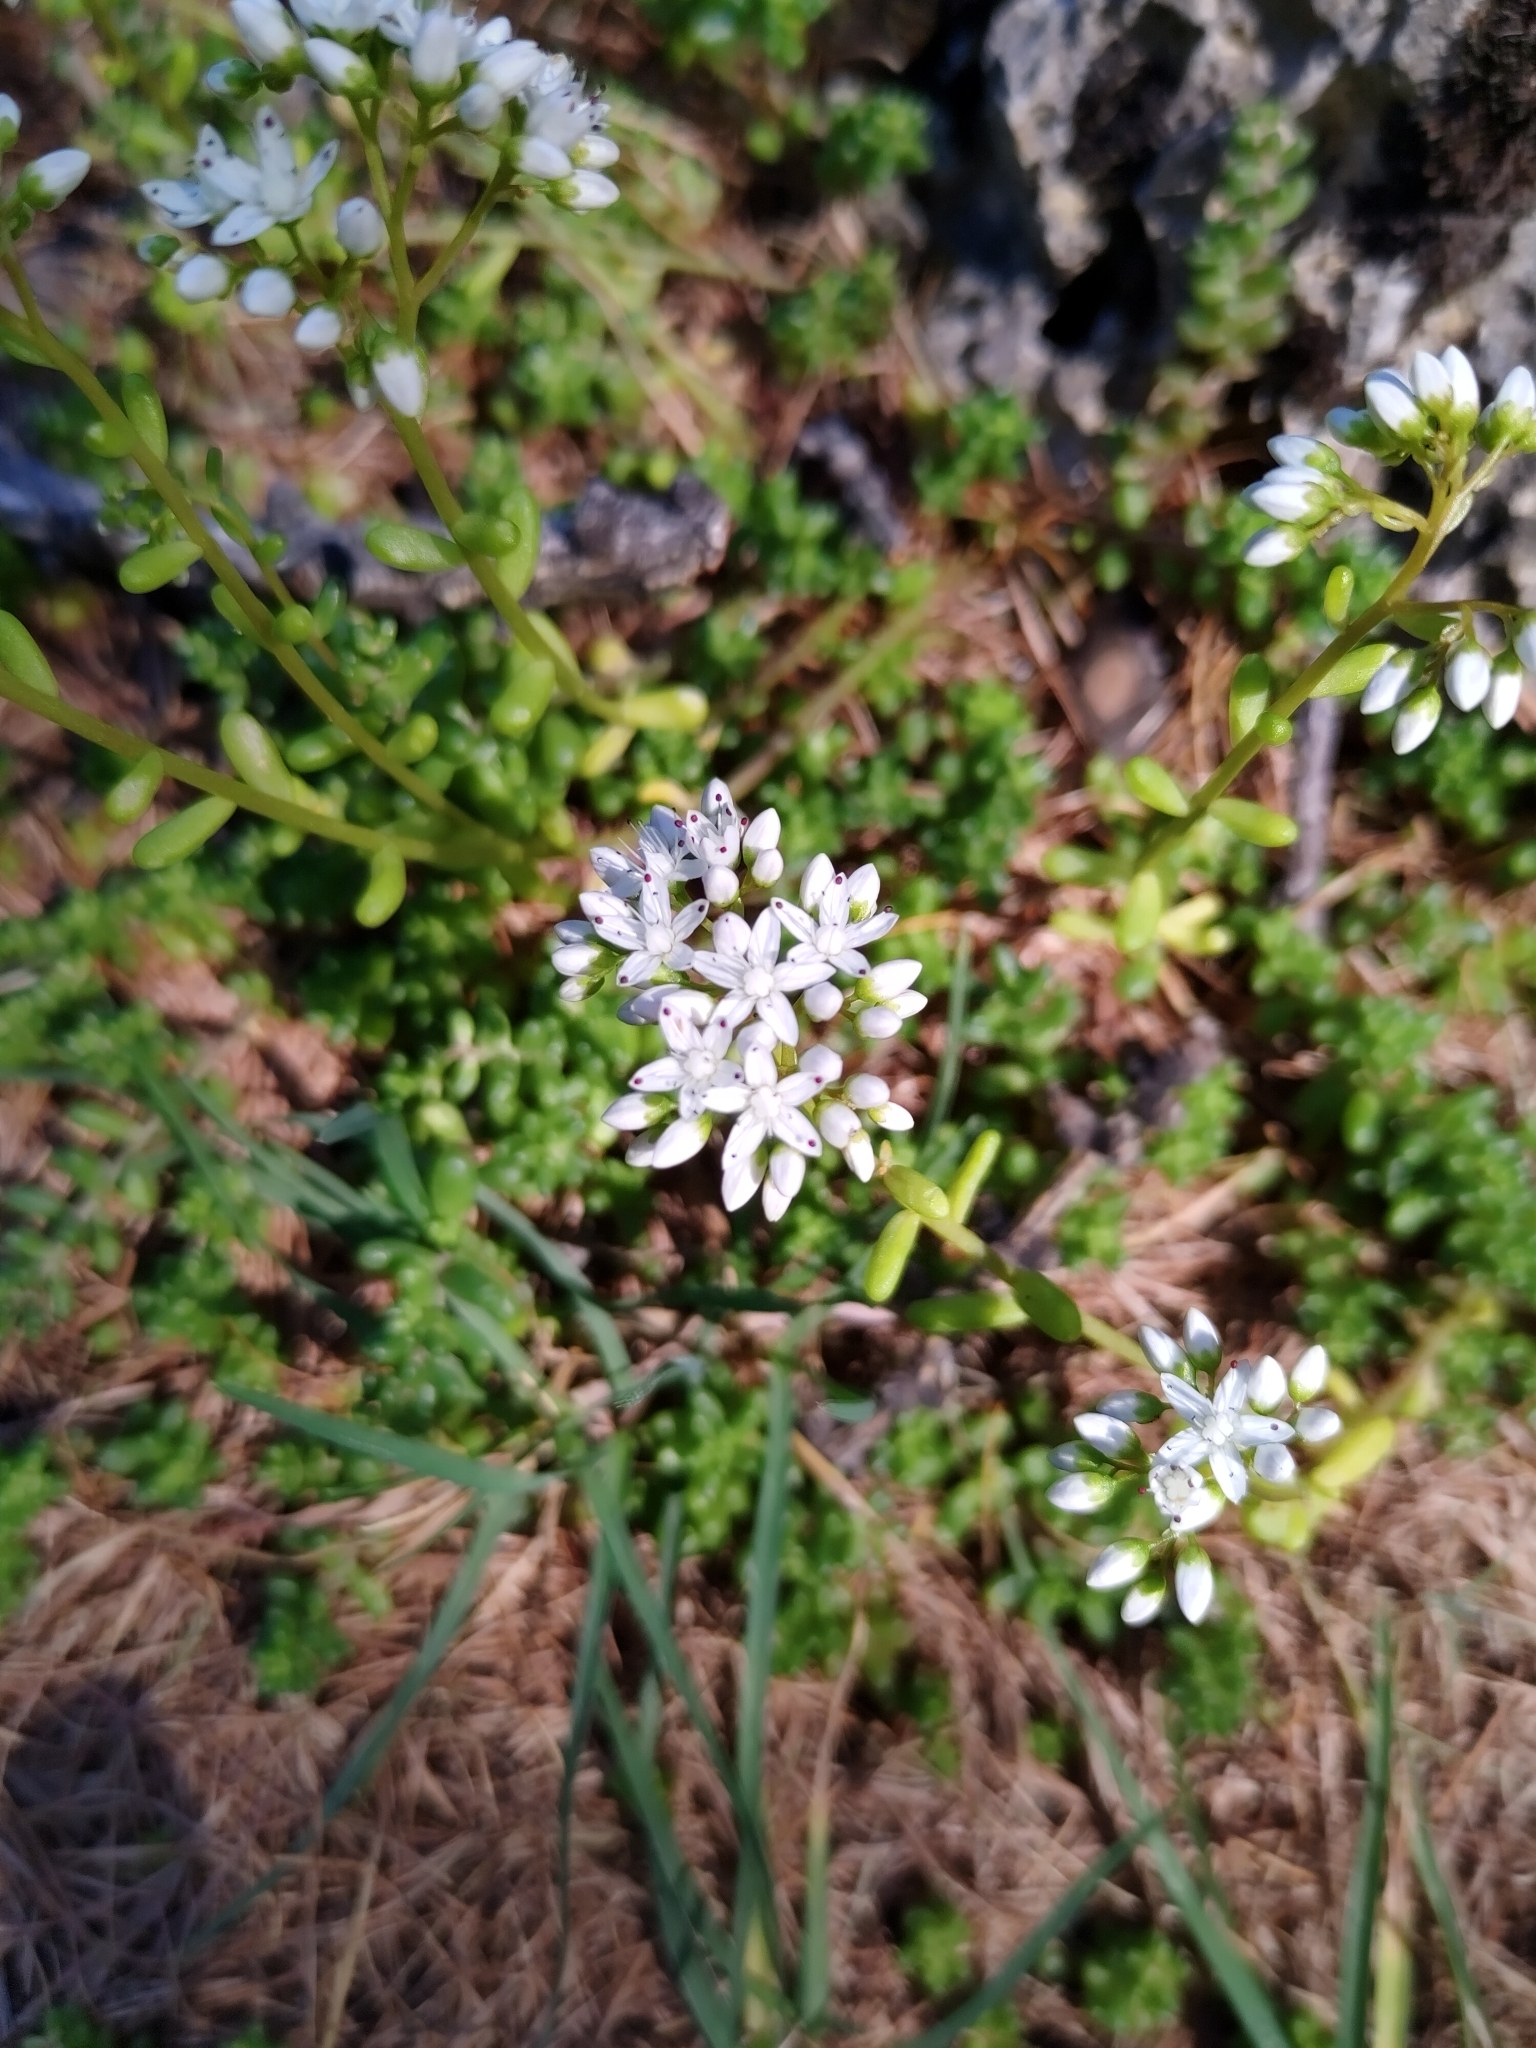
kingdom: Plantae
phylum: Tracheophyta
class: Magnoliopsida
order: Saxifragales
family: Crassulaceae
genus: Sedum
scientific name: Sedum album
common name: White stonecrop
